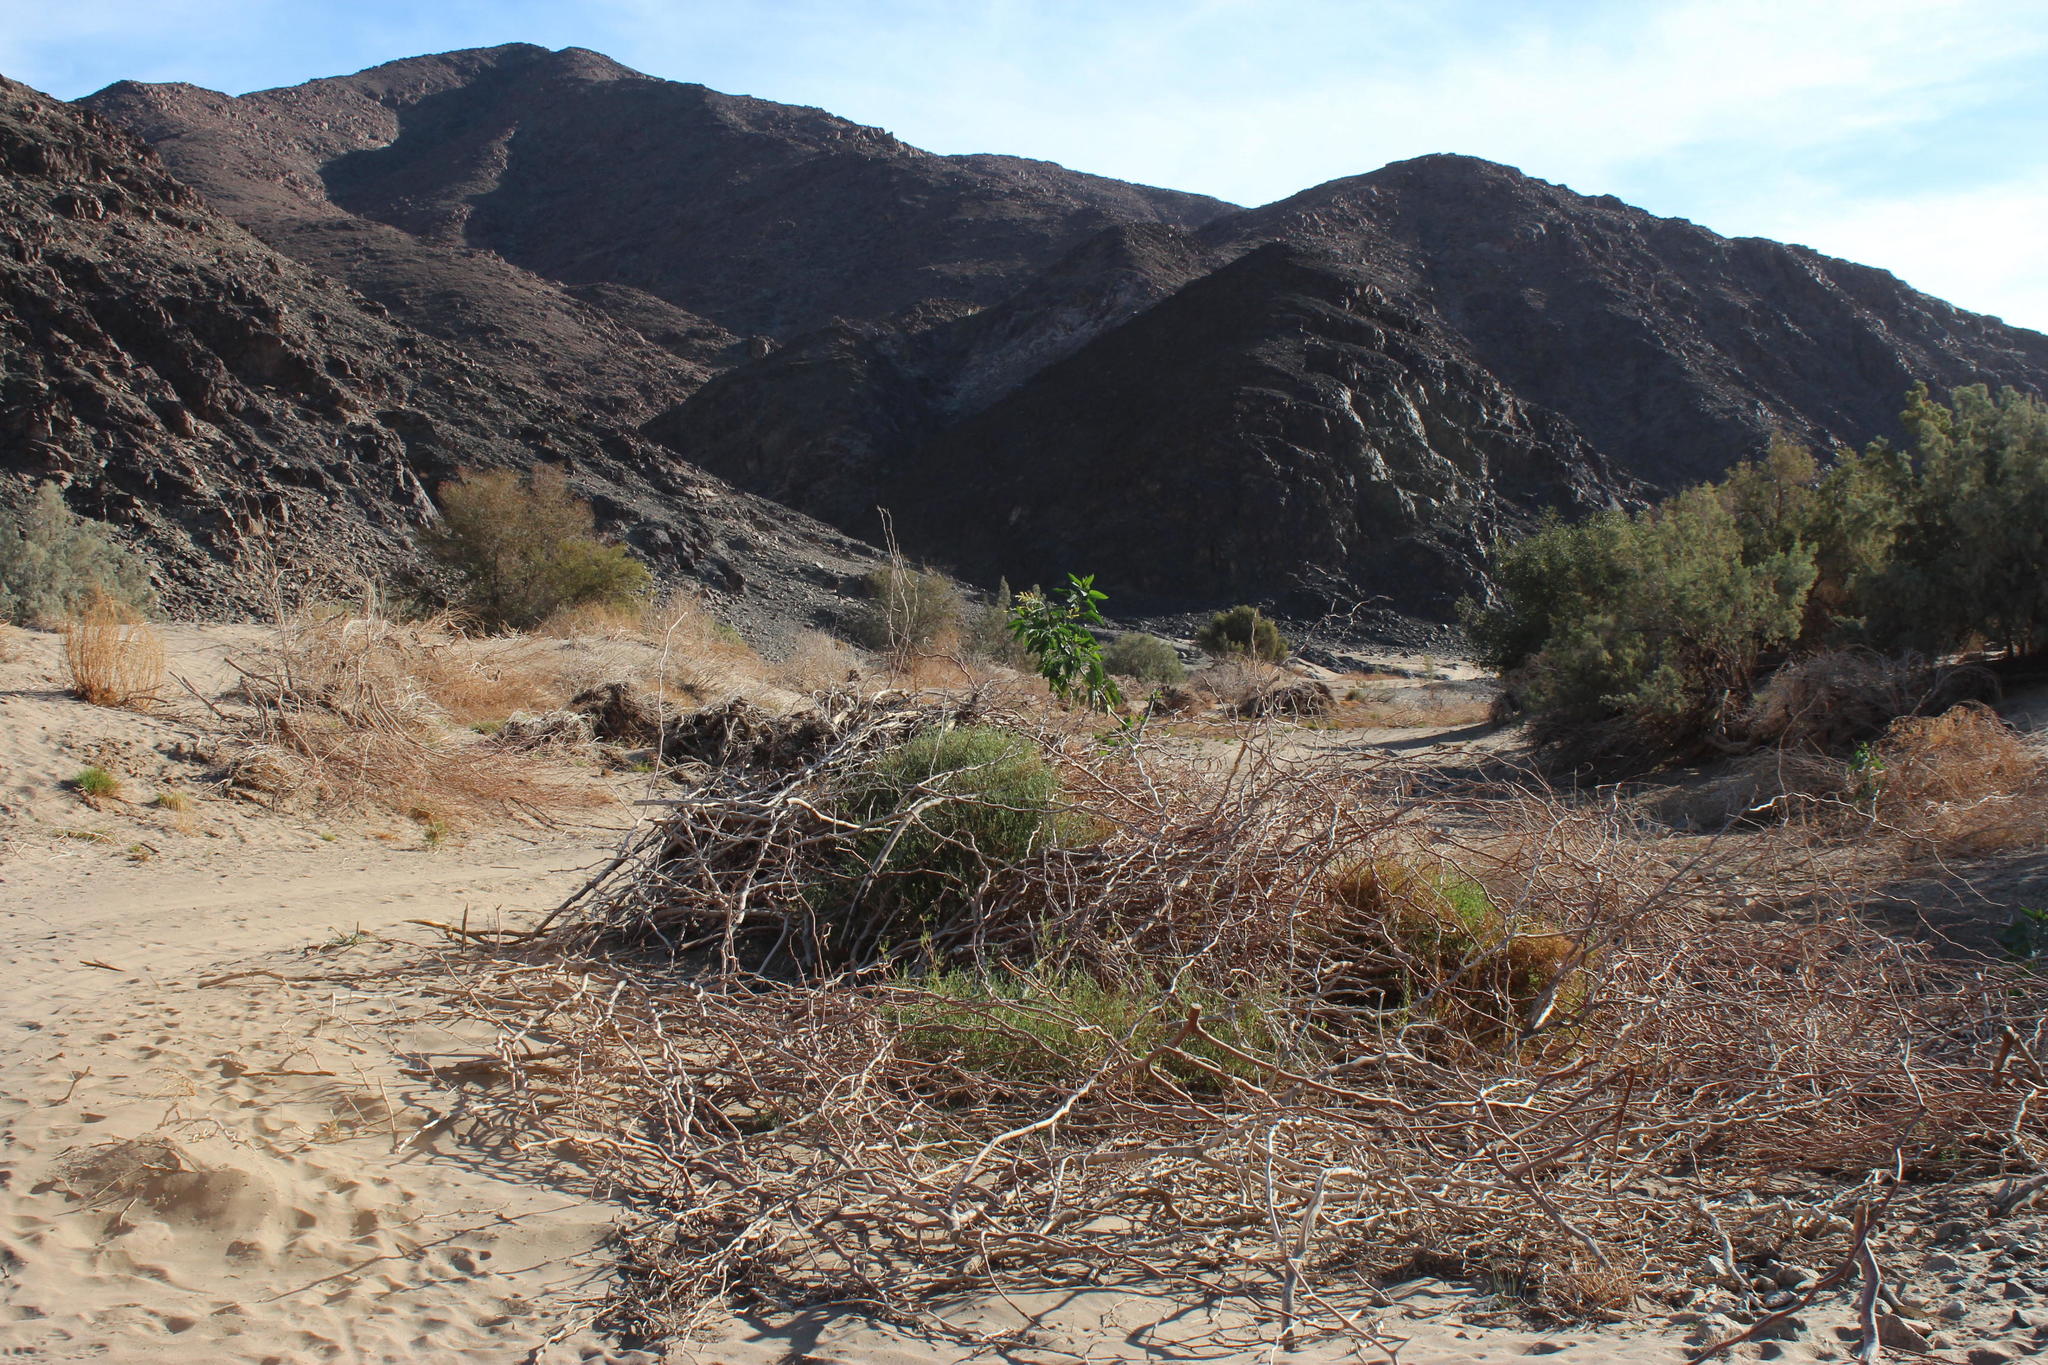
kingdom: Plantae
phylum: Tracheophyta
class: Magnoliopsida
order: Solanales
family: Solanaceae
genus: Nicotiana
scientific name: Nicotiana glauca
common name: Tree tobacco
